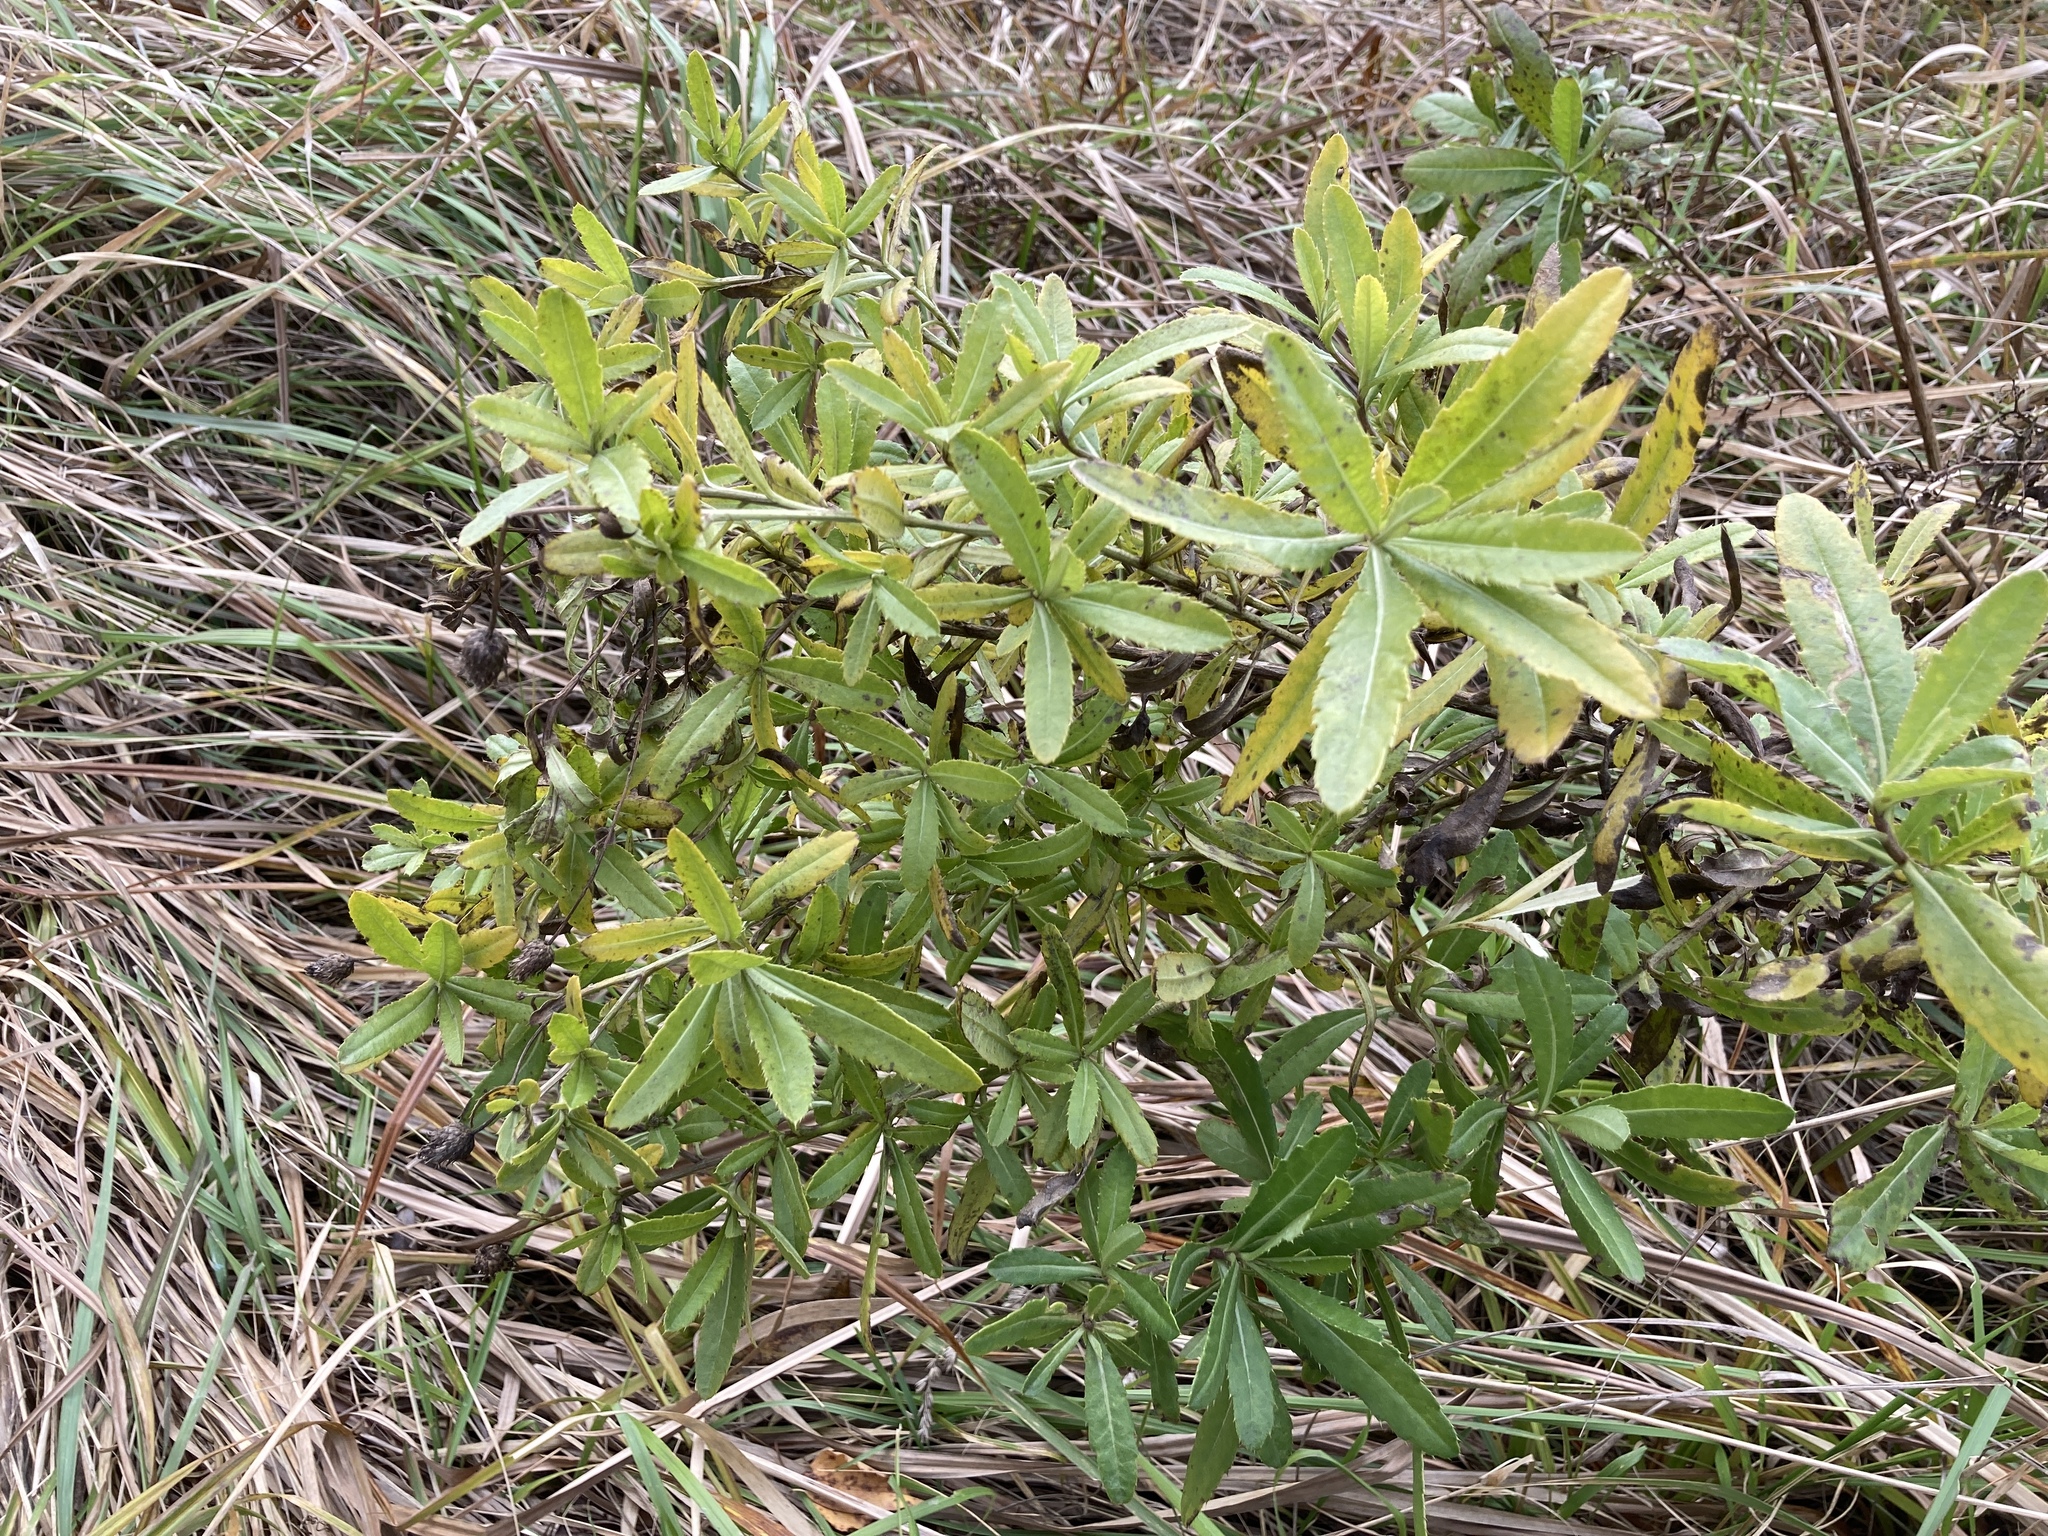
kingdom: Plantae
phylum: Tracheophyta
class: Magnoliopsida
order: Asterales
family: Asteraceae
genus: Cirsium
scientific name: Cirsium arvense
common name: Creeping thistle
